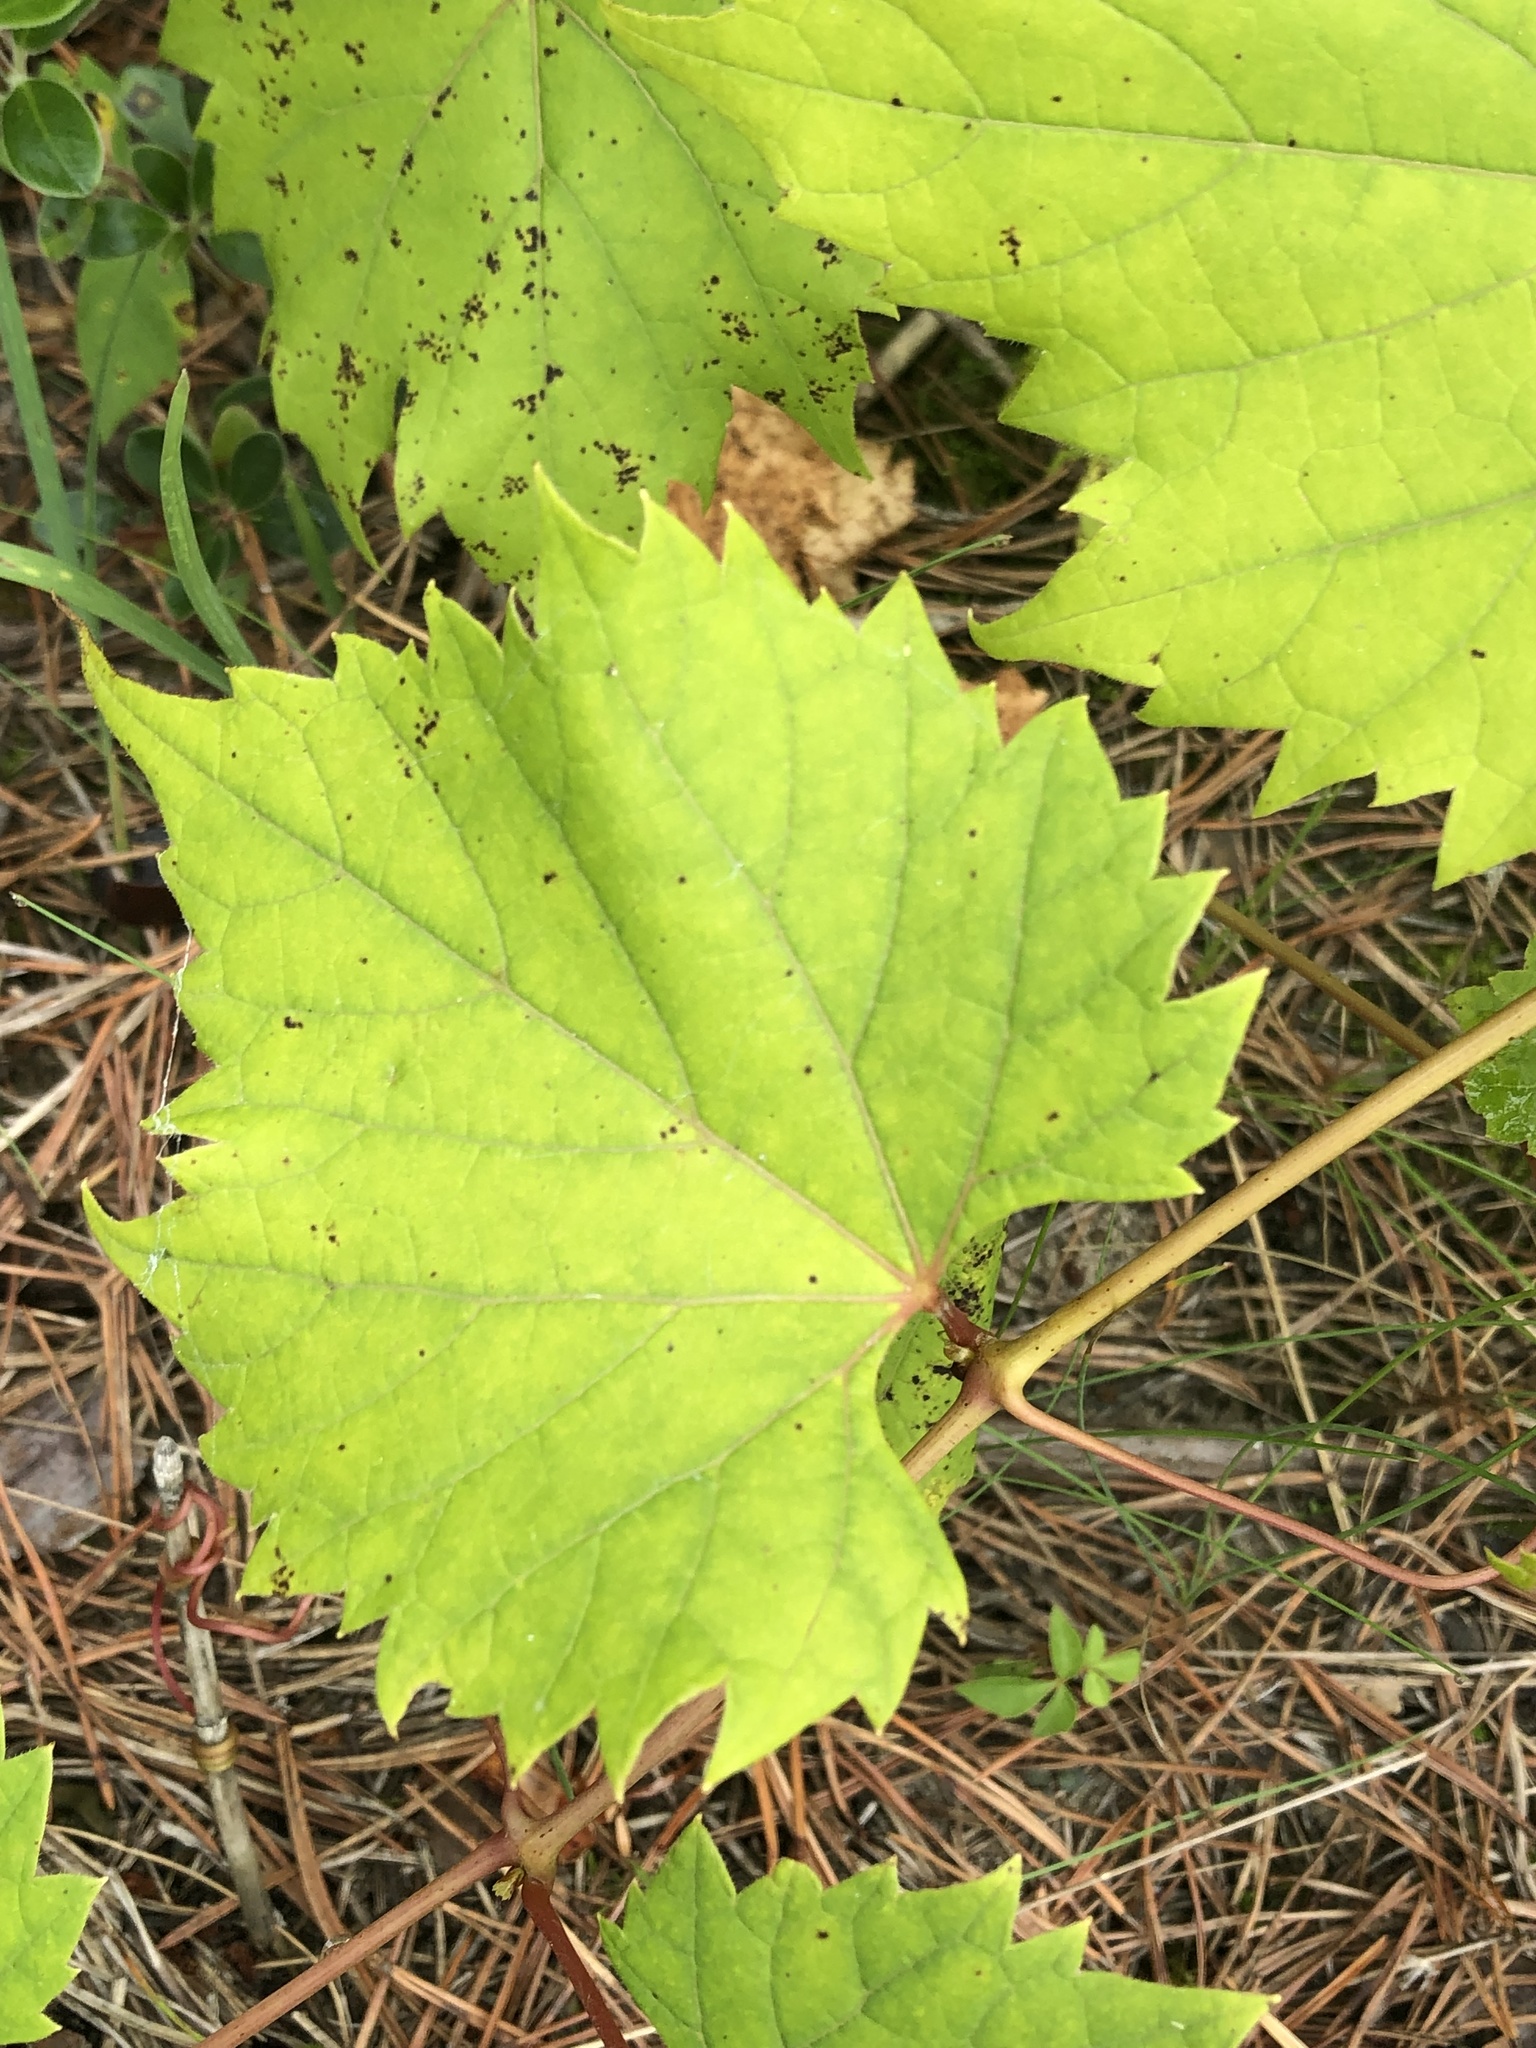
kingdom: Plantae
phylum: Tracheophyta
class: Magnoliopsida
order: Vitales
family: Vitaceae
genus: Vitis
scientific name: Vitis riparia
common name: Frost grape
